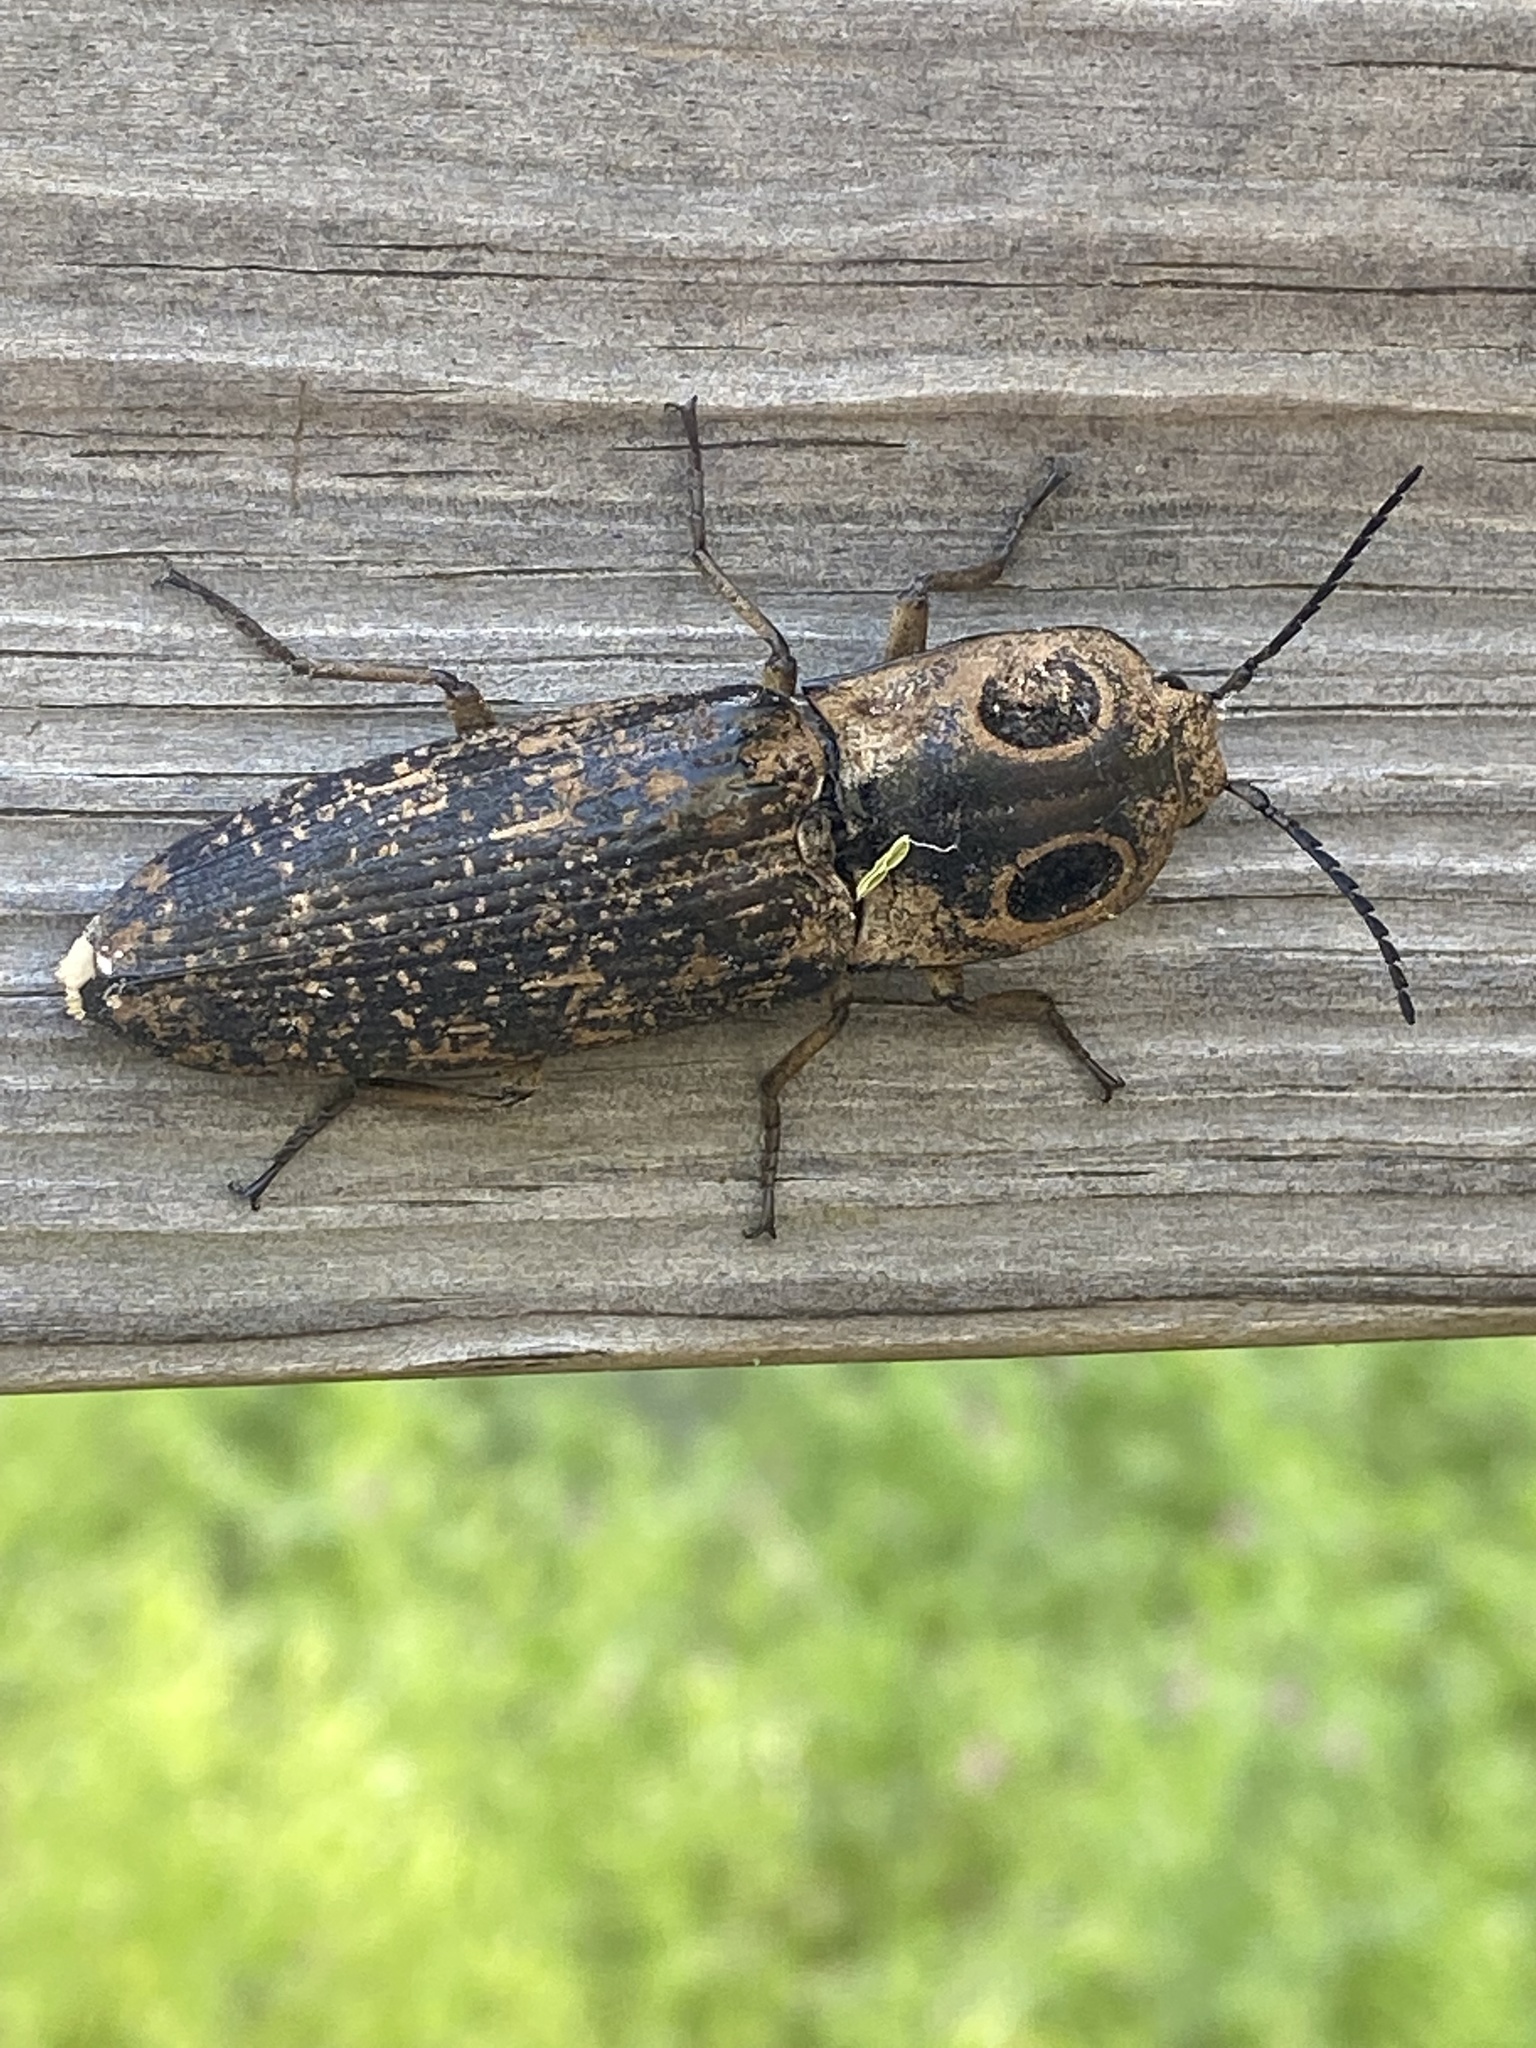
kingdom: Animalia
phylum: Arthropoda
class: Insecta
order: Coleoptera
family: Elateridae
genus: Alaus
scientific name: Alaus oculatus
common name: Eastern eyed click beetle
